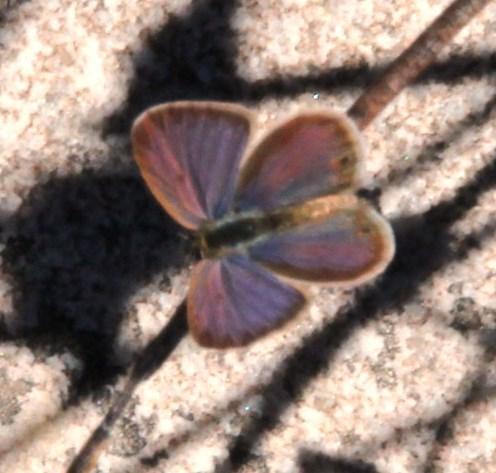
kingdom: Animalia
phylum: Arthropoda
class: Insecta
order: Lepidoptera
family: Lycaenidae
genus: Eicochrysops
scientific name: Eicochrysops messapus
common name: Cupreous blue
